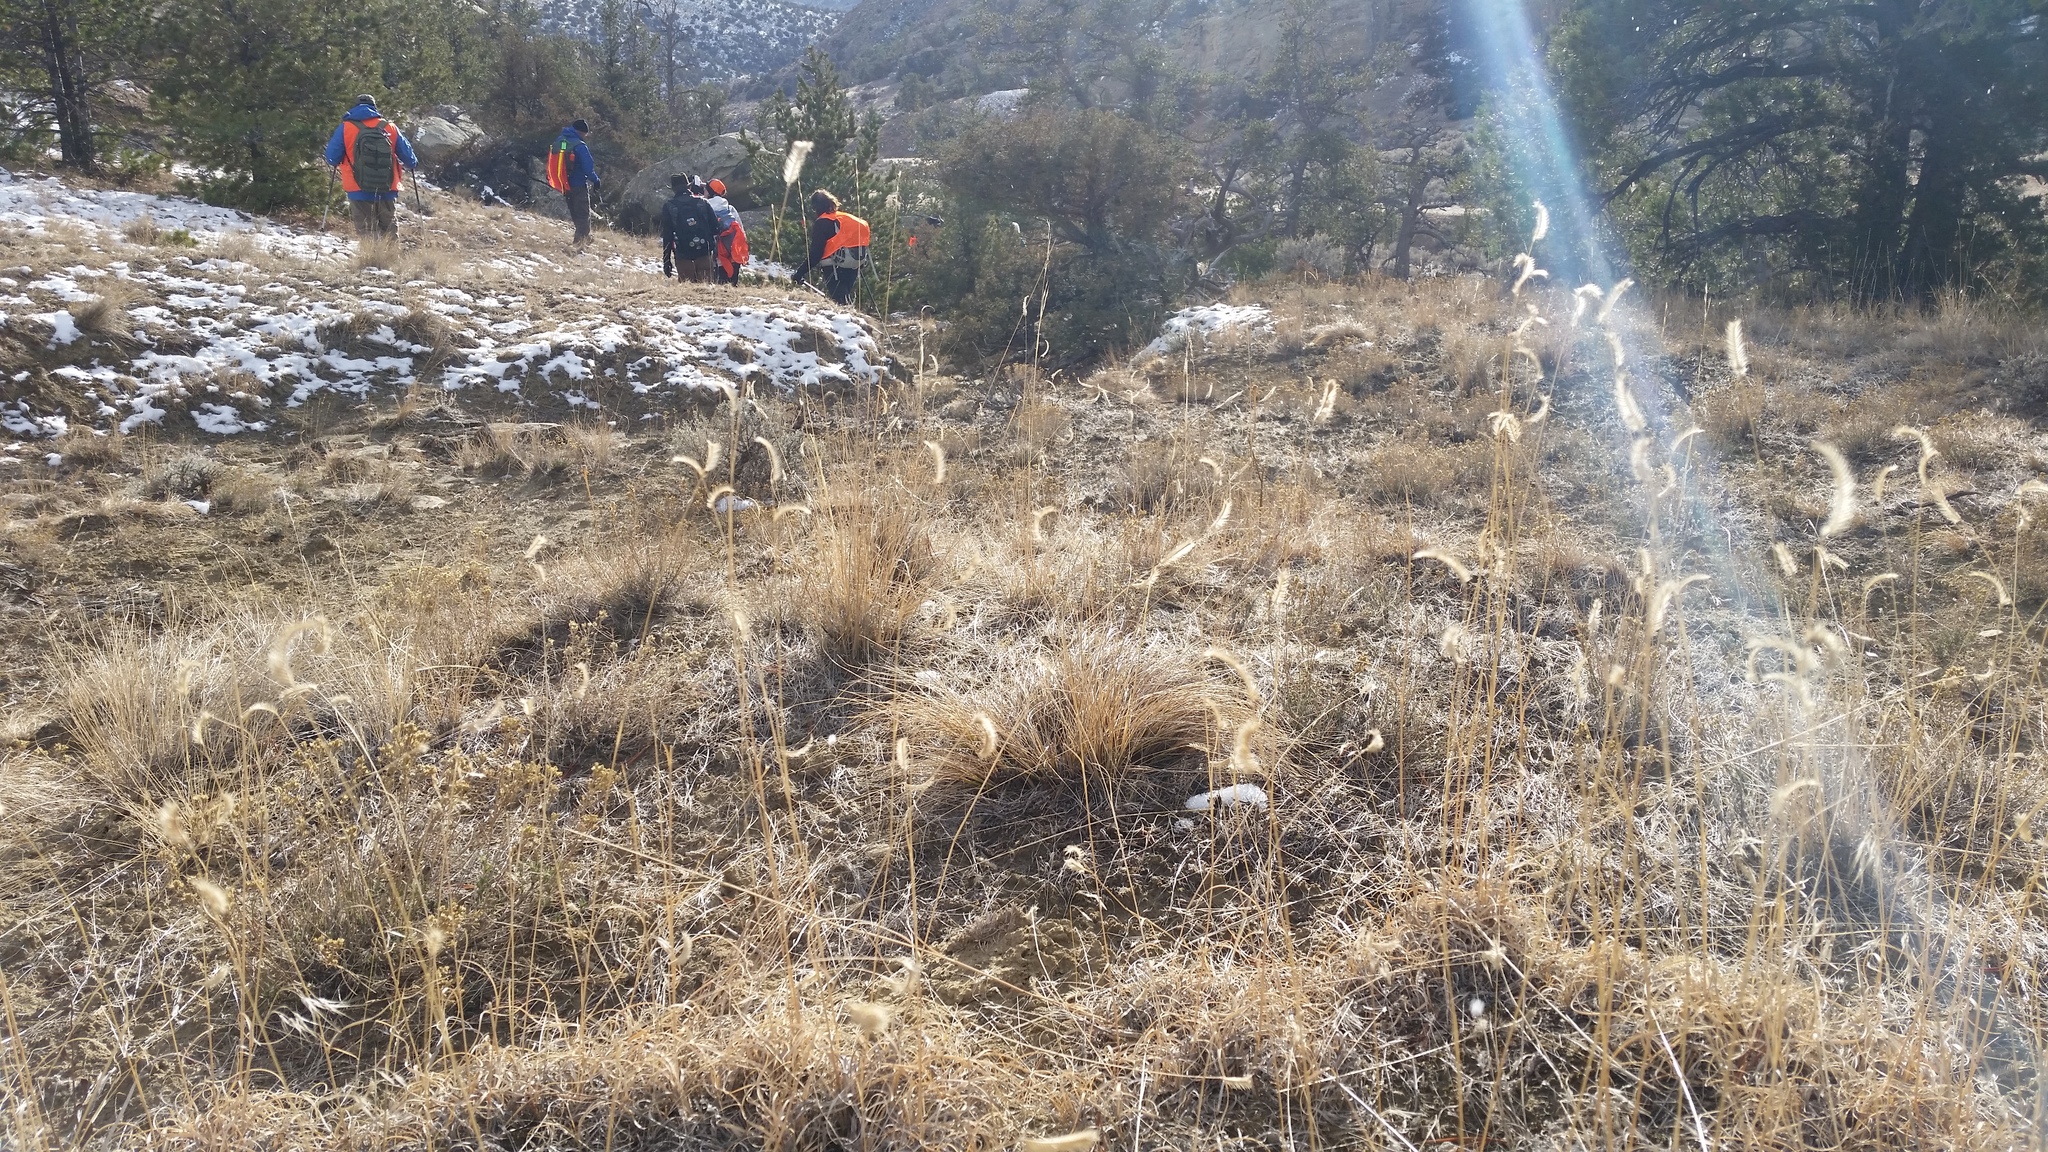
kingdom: Plantae
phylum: Tracheophyta
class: Liliopsida
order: Poales
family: Poaceae
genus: Bouteloua
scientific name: Bouteloua gracilis
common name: Blue grama
